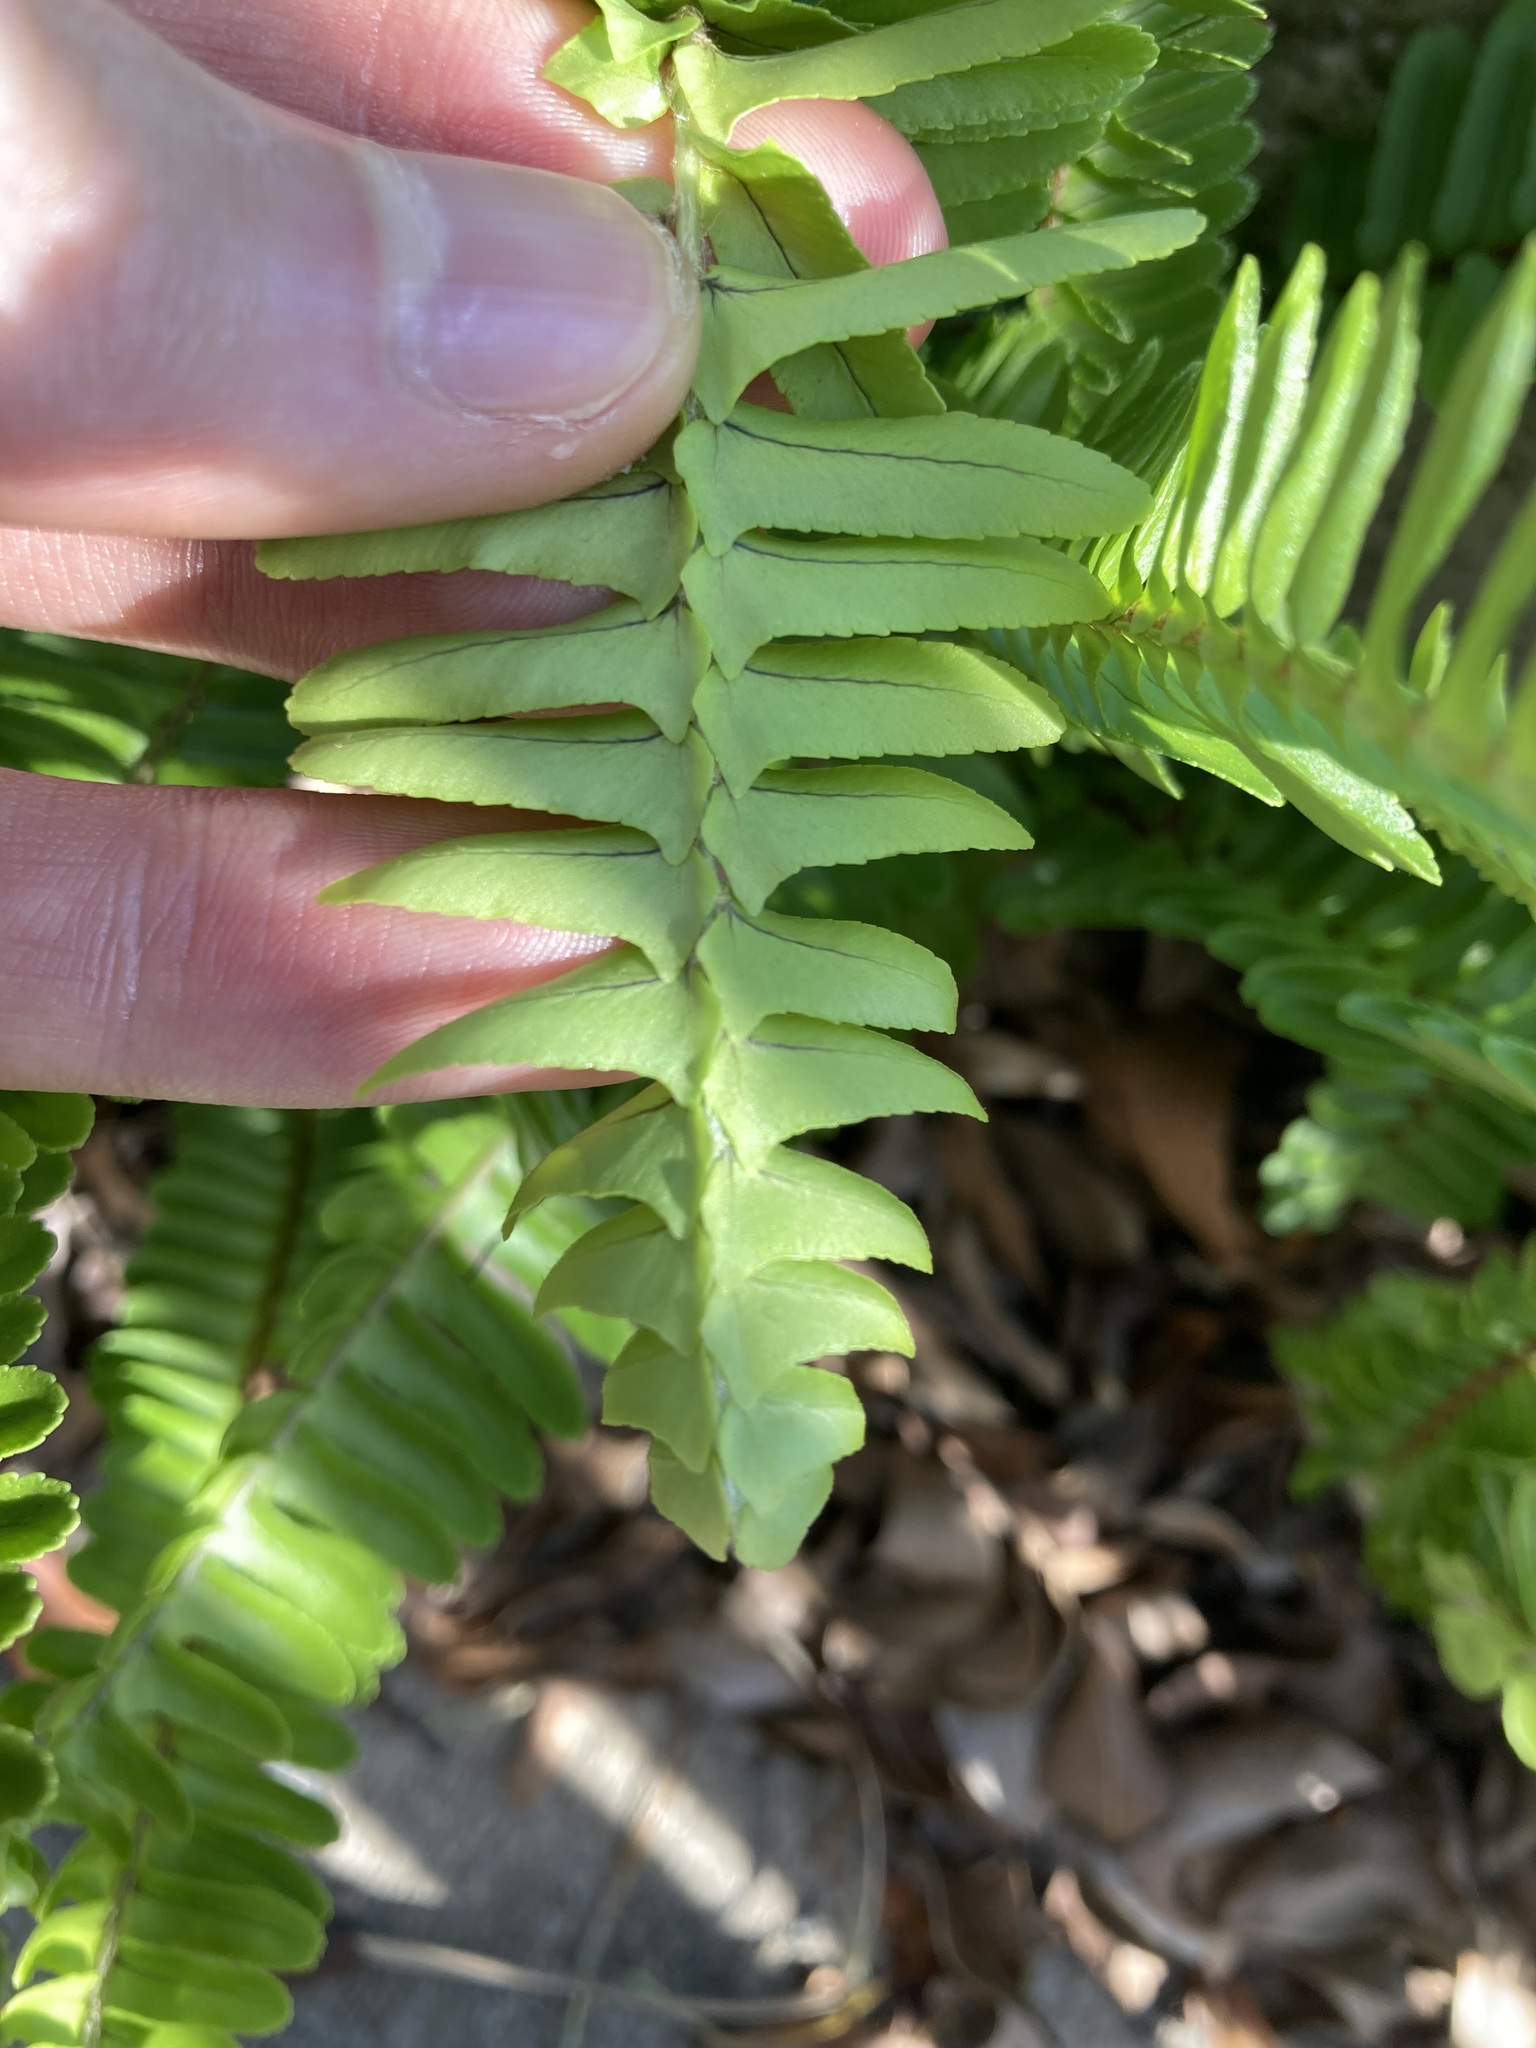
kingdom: Plantae
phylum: Tracheophyta
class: Polypodiopsida
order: Polypodiales
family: Nephrolepidaceae
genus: Nephrolepis
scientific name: Nephrolepis cordifolia
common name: Narrow swordfern
